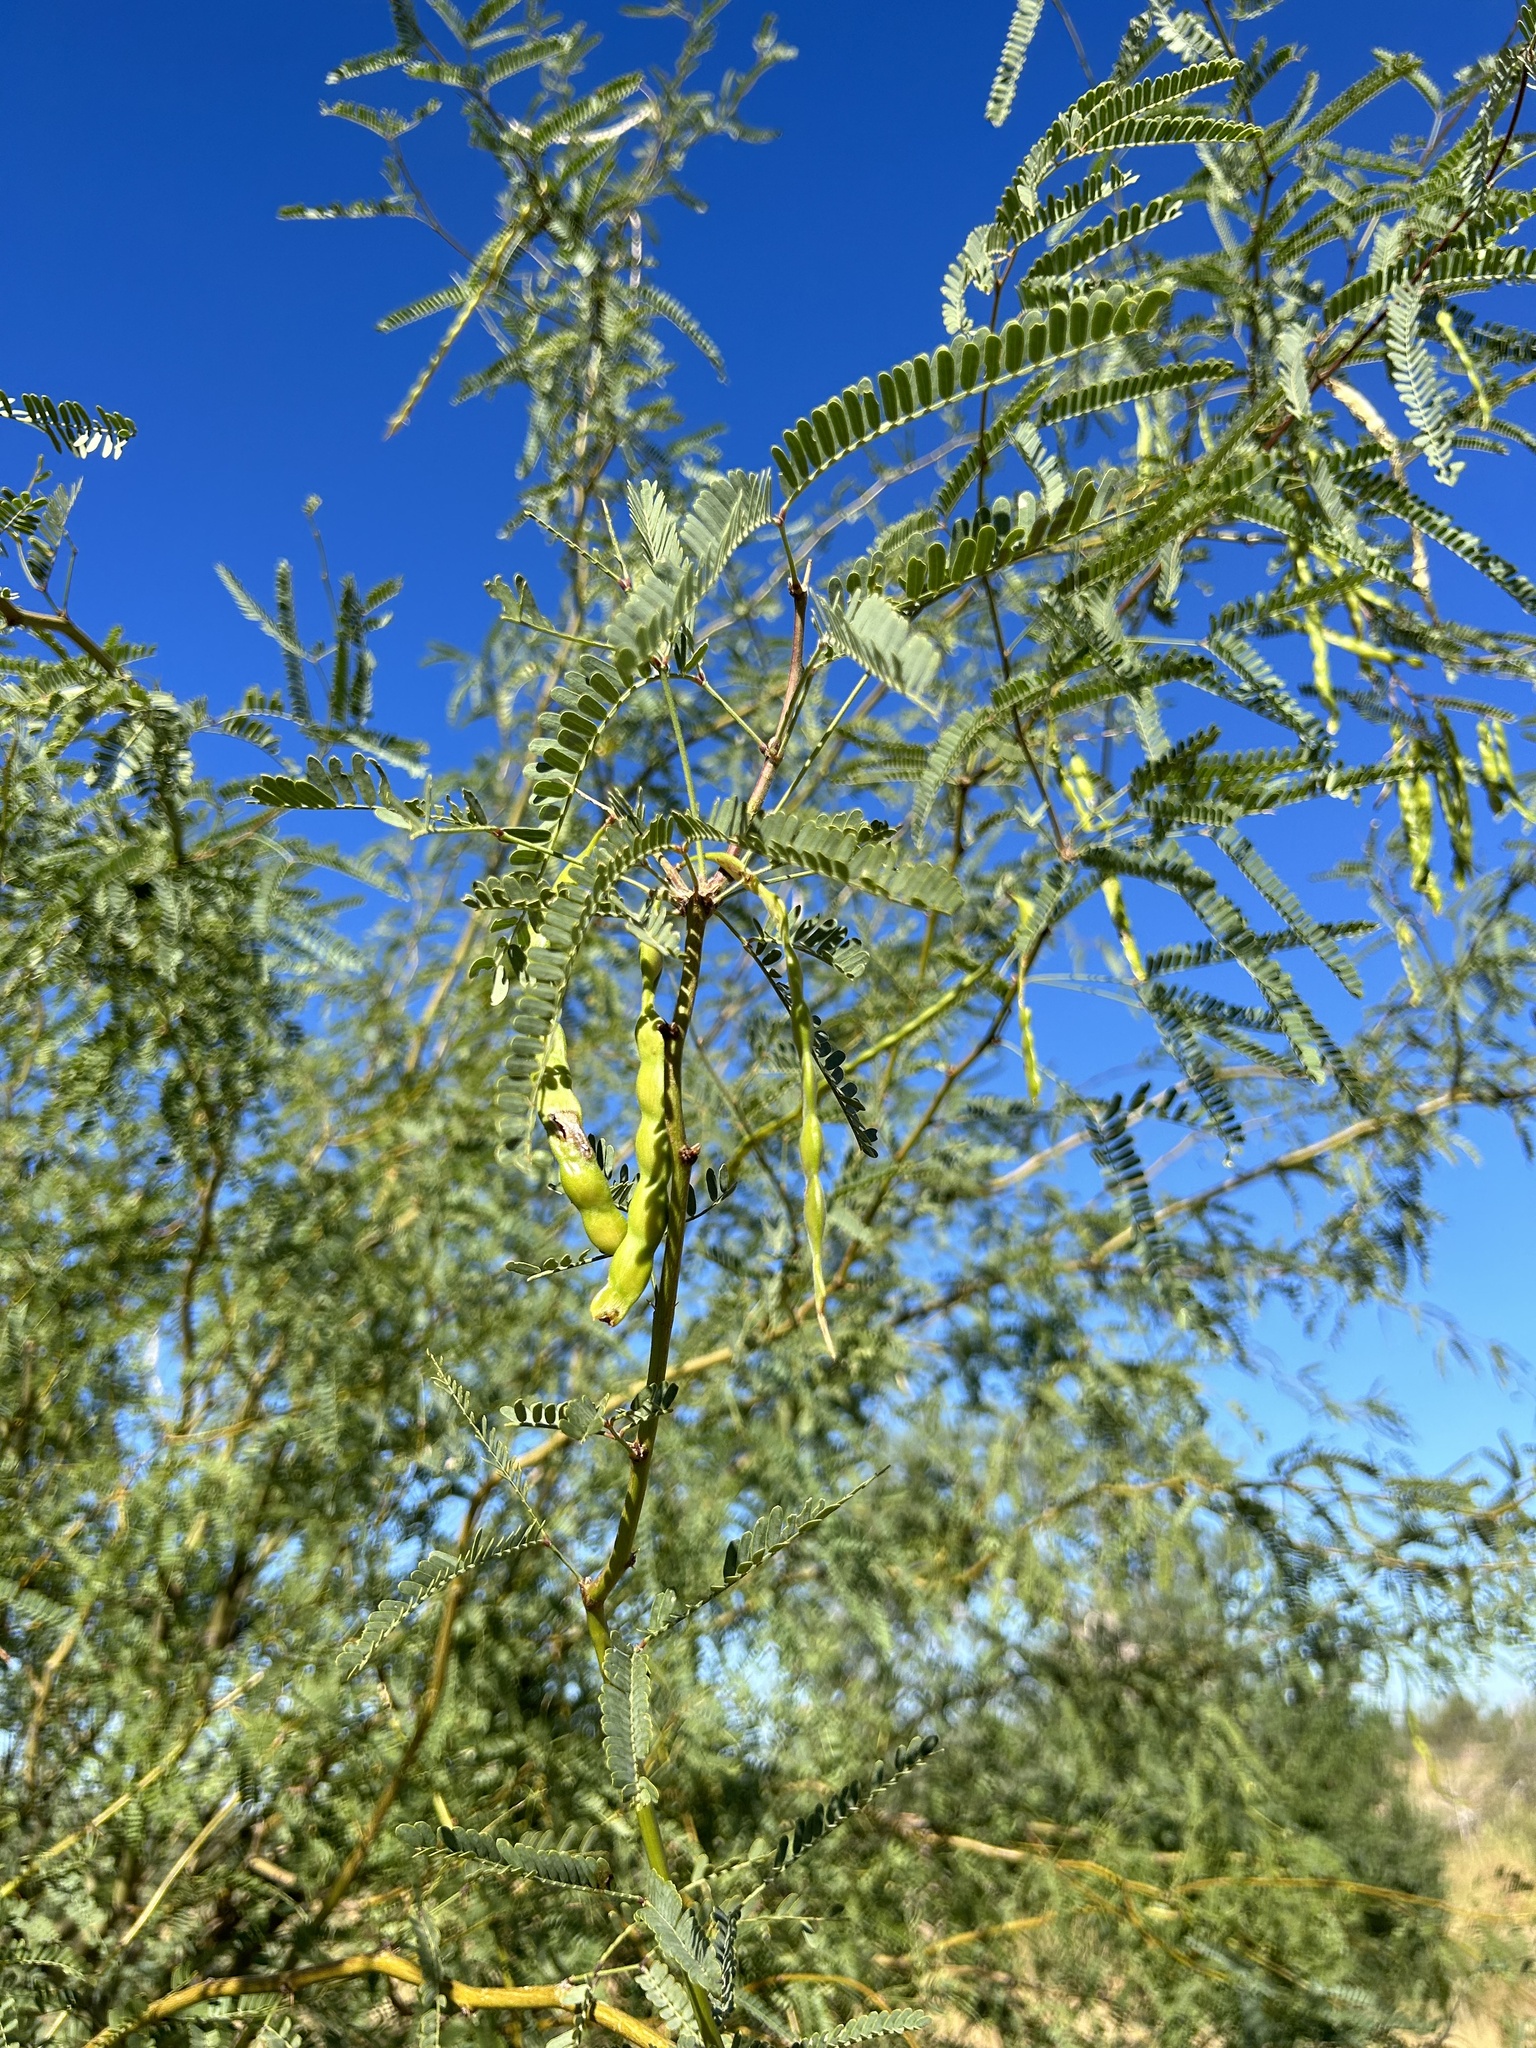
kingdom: Plantae
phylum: Tracheophyta
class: Magnoliopsida
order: Fabales
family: Fabaceae
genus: Prosopis
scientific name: Prosopis velutina
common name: Velvet mesquite
